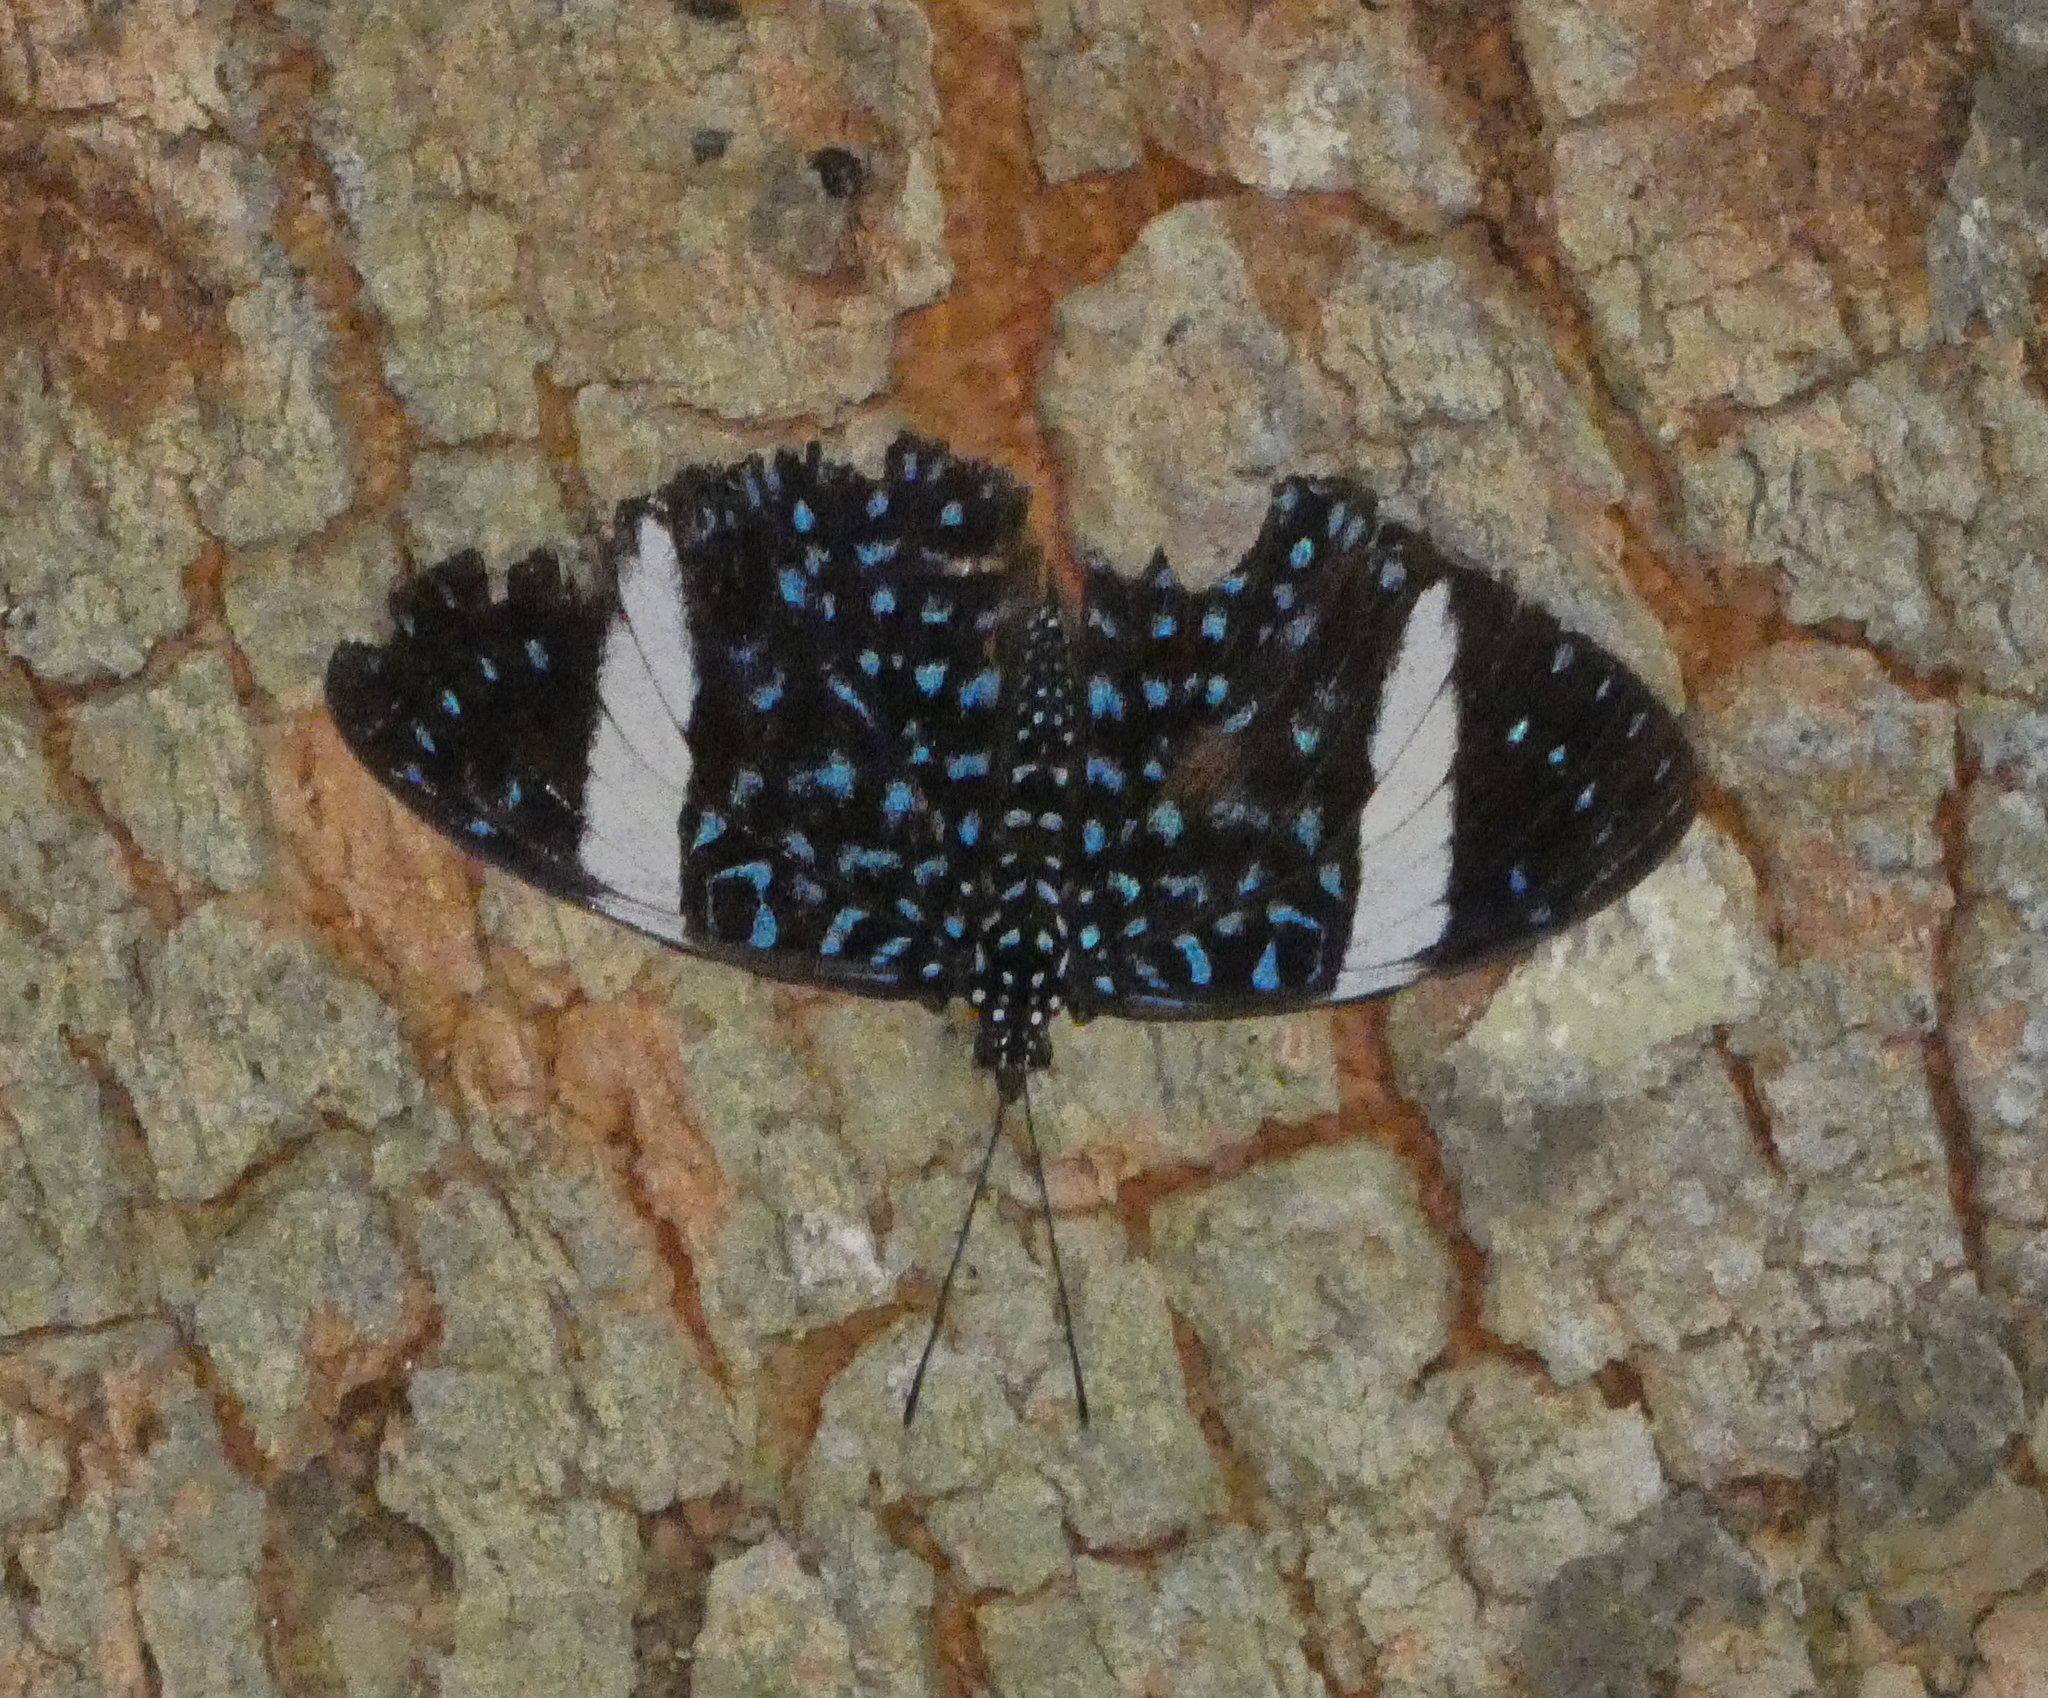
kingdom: Animalia
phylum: Arthropoda
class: Insecta
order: Lepidoptera
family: Nymphalidae
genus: Hamadryas
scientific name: Hamadryas laodamia
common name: Starry night cracker
